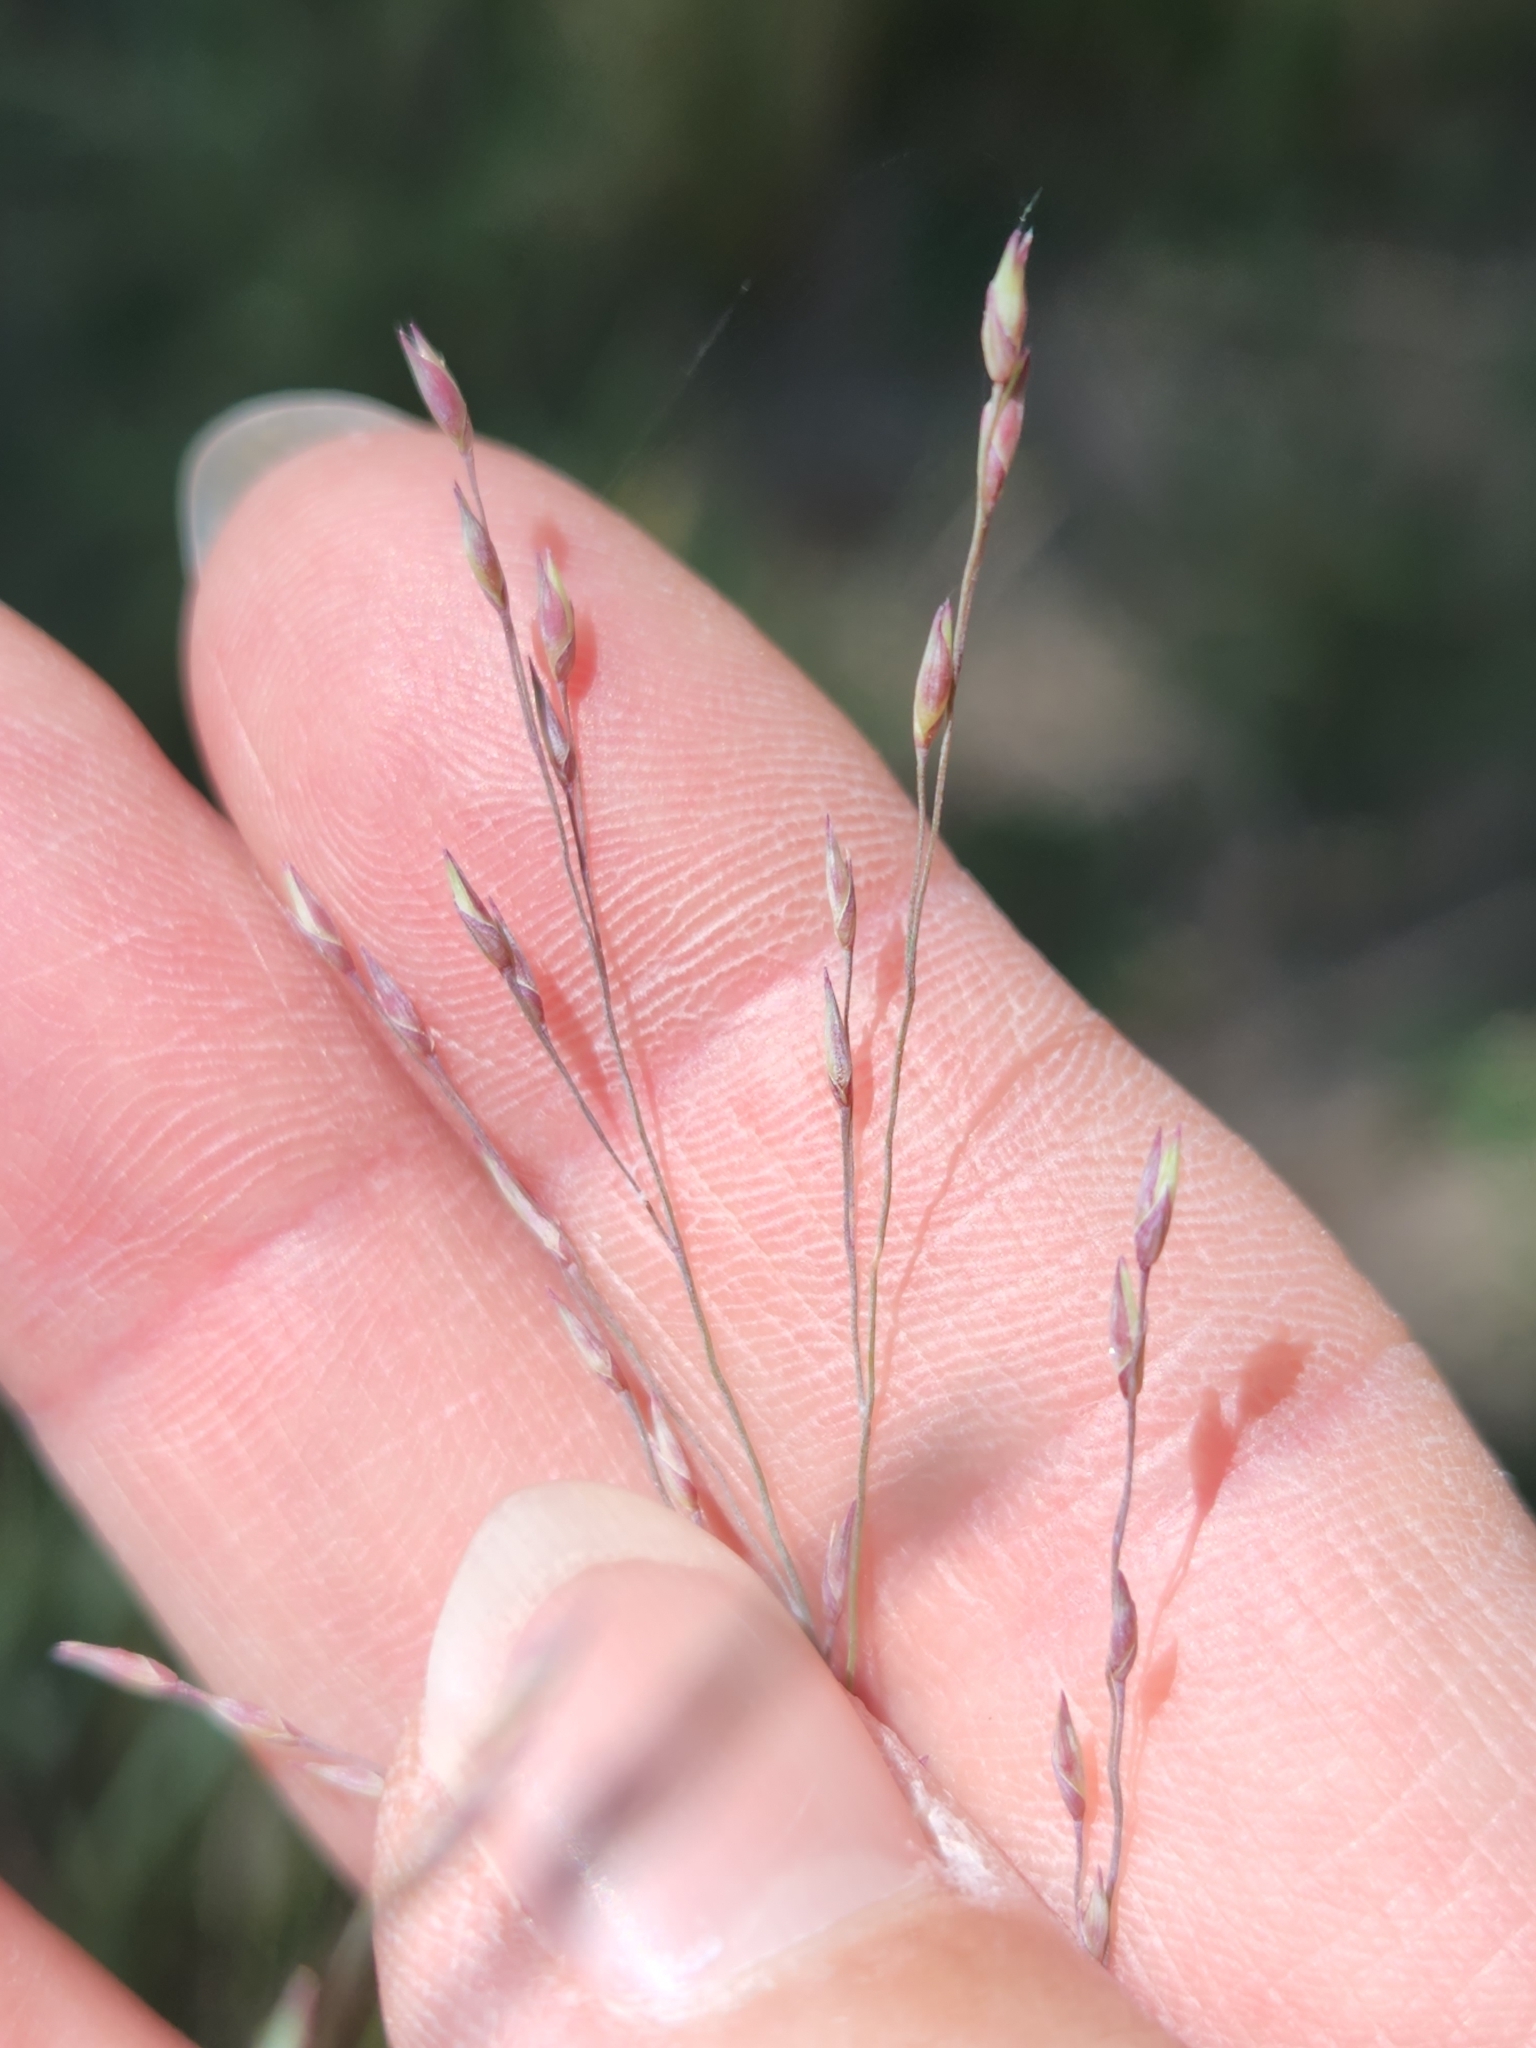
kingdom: Plantae
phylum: Tracheophyta
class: Liliopsida
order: Poales
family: Poaceae
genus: Panicum
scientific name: Panicum virgatum
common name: Switchgrass
